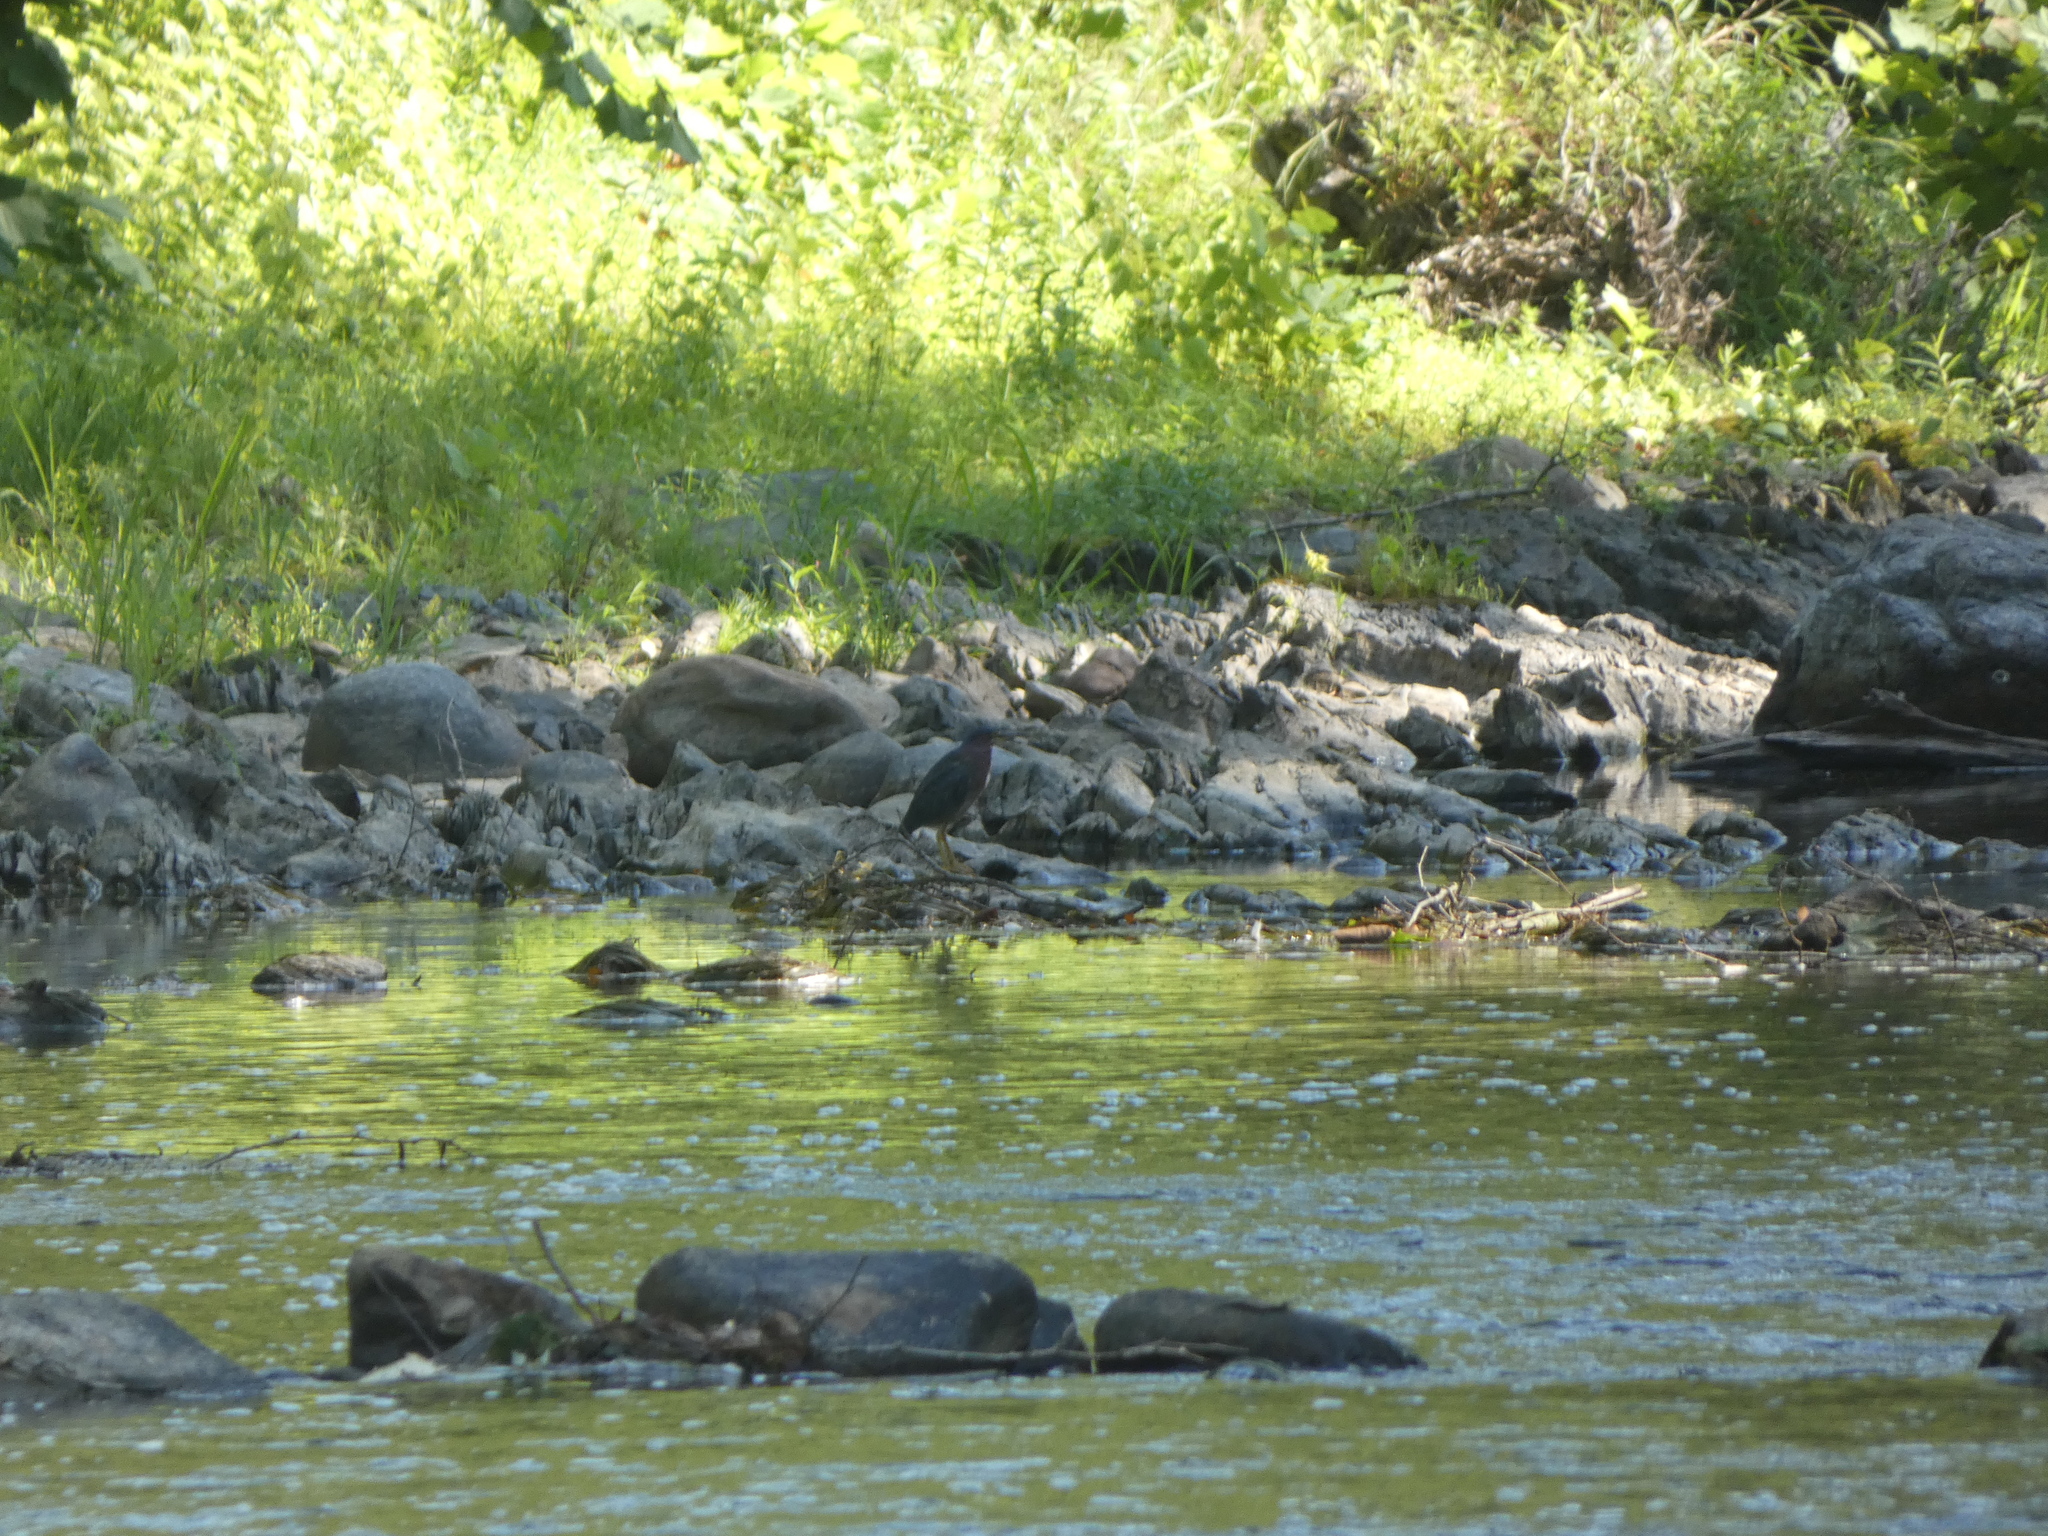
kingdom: Animalia
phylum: Chordata
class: Aves
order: Pelecaniformes
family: Ardeidae
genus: Butorides
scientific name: Butorides virescens
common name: Green heron
